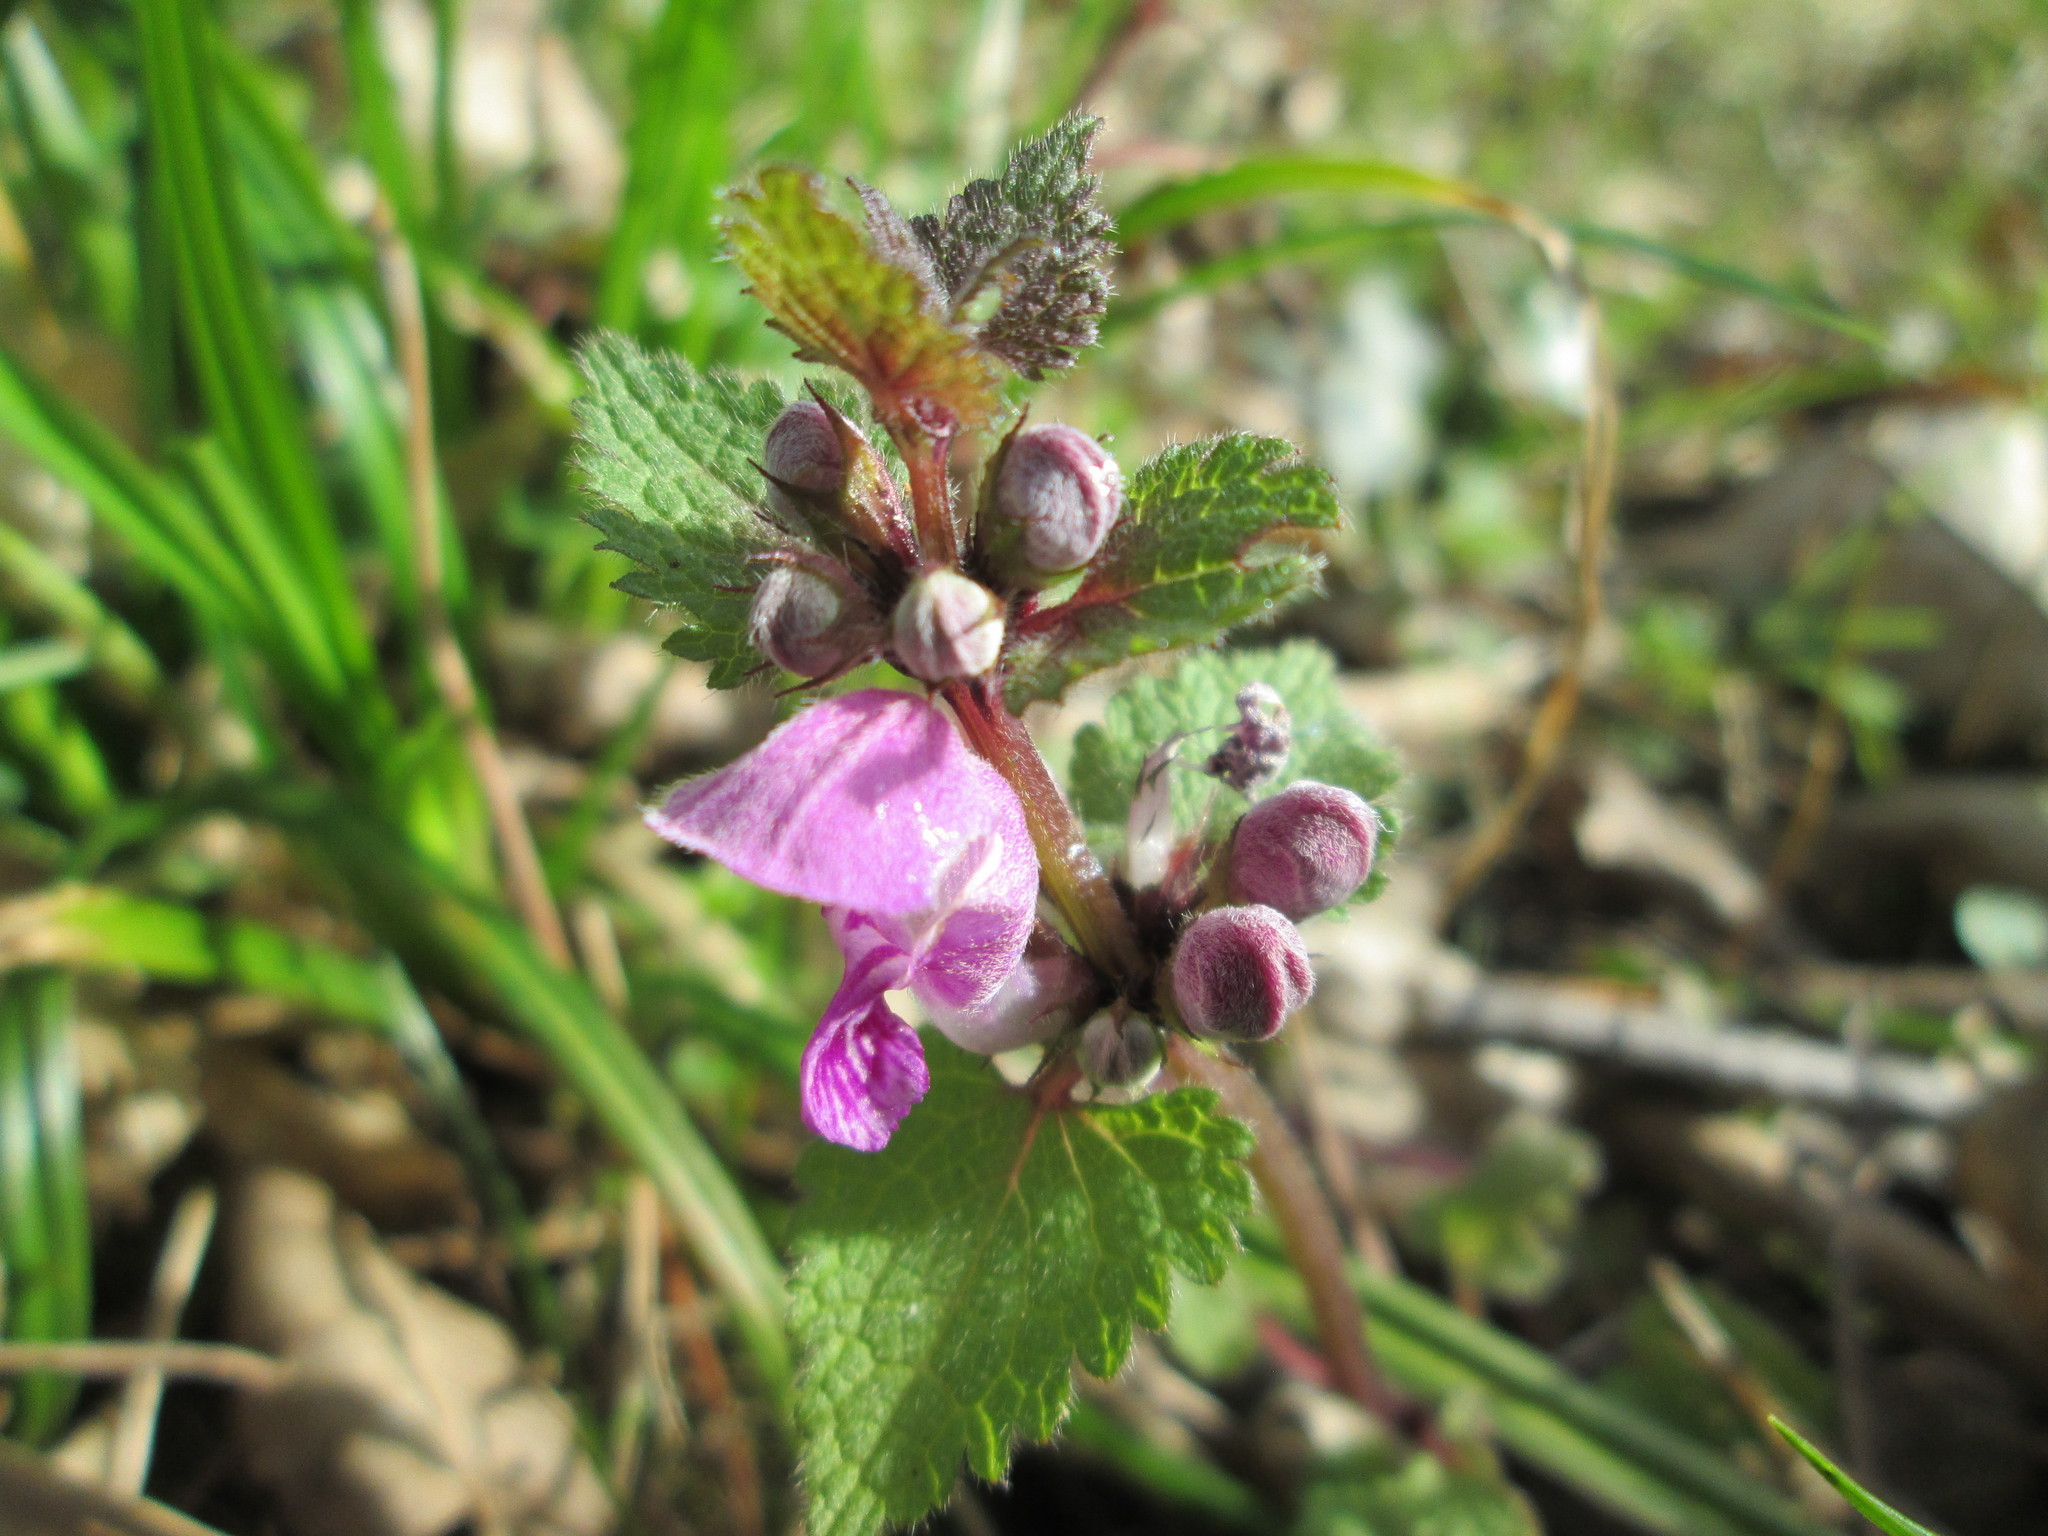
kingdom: Plantae
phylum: Tracheophyta
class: Magnoliopsida
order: Lamiales
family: Lamiaceae
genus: Lamium
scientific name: Lamium maculatum
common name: Spotted dead-nettle
